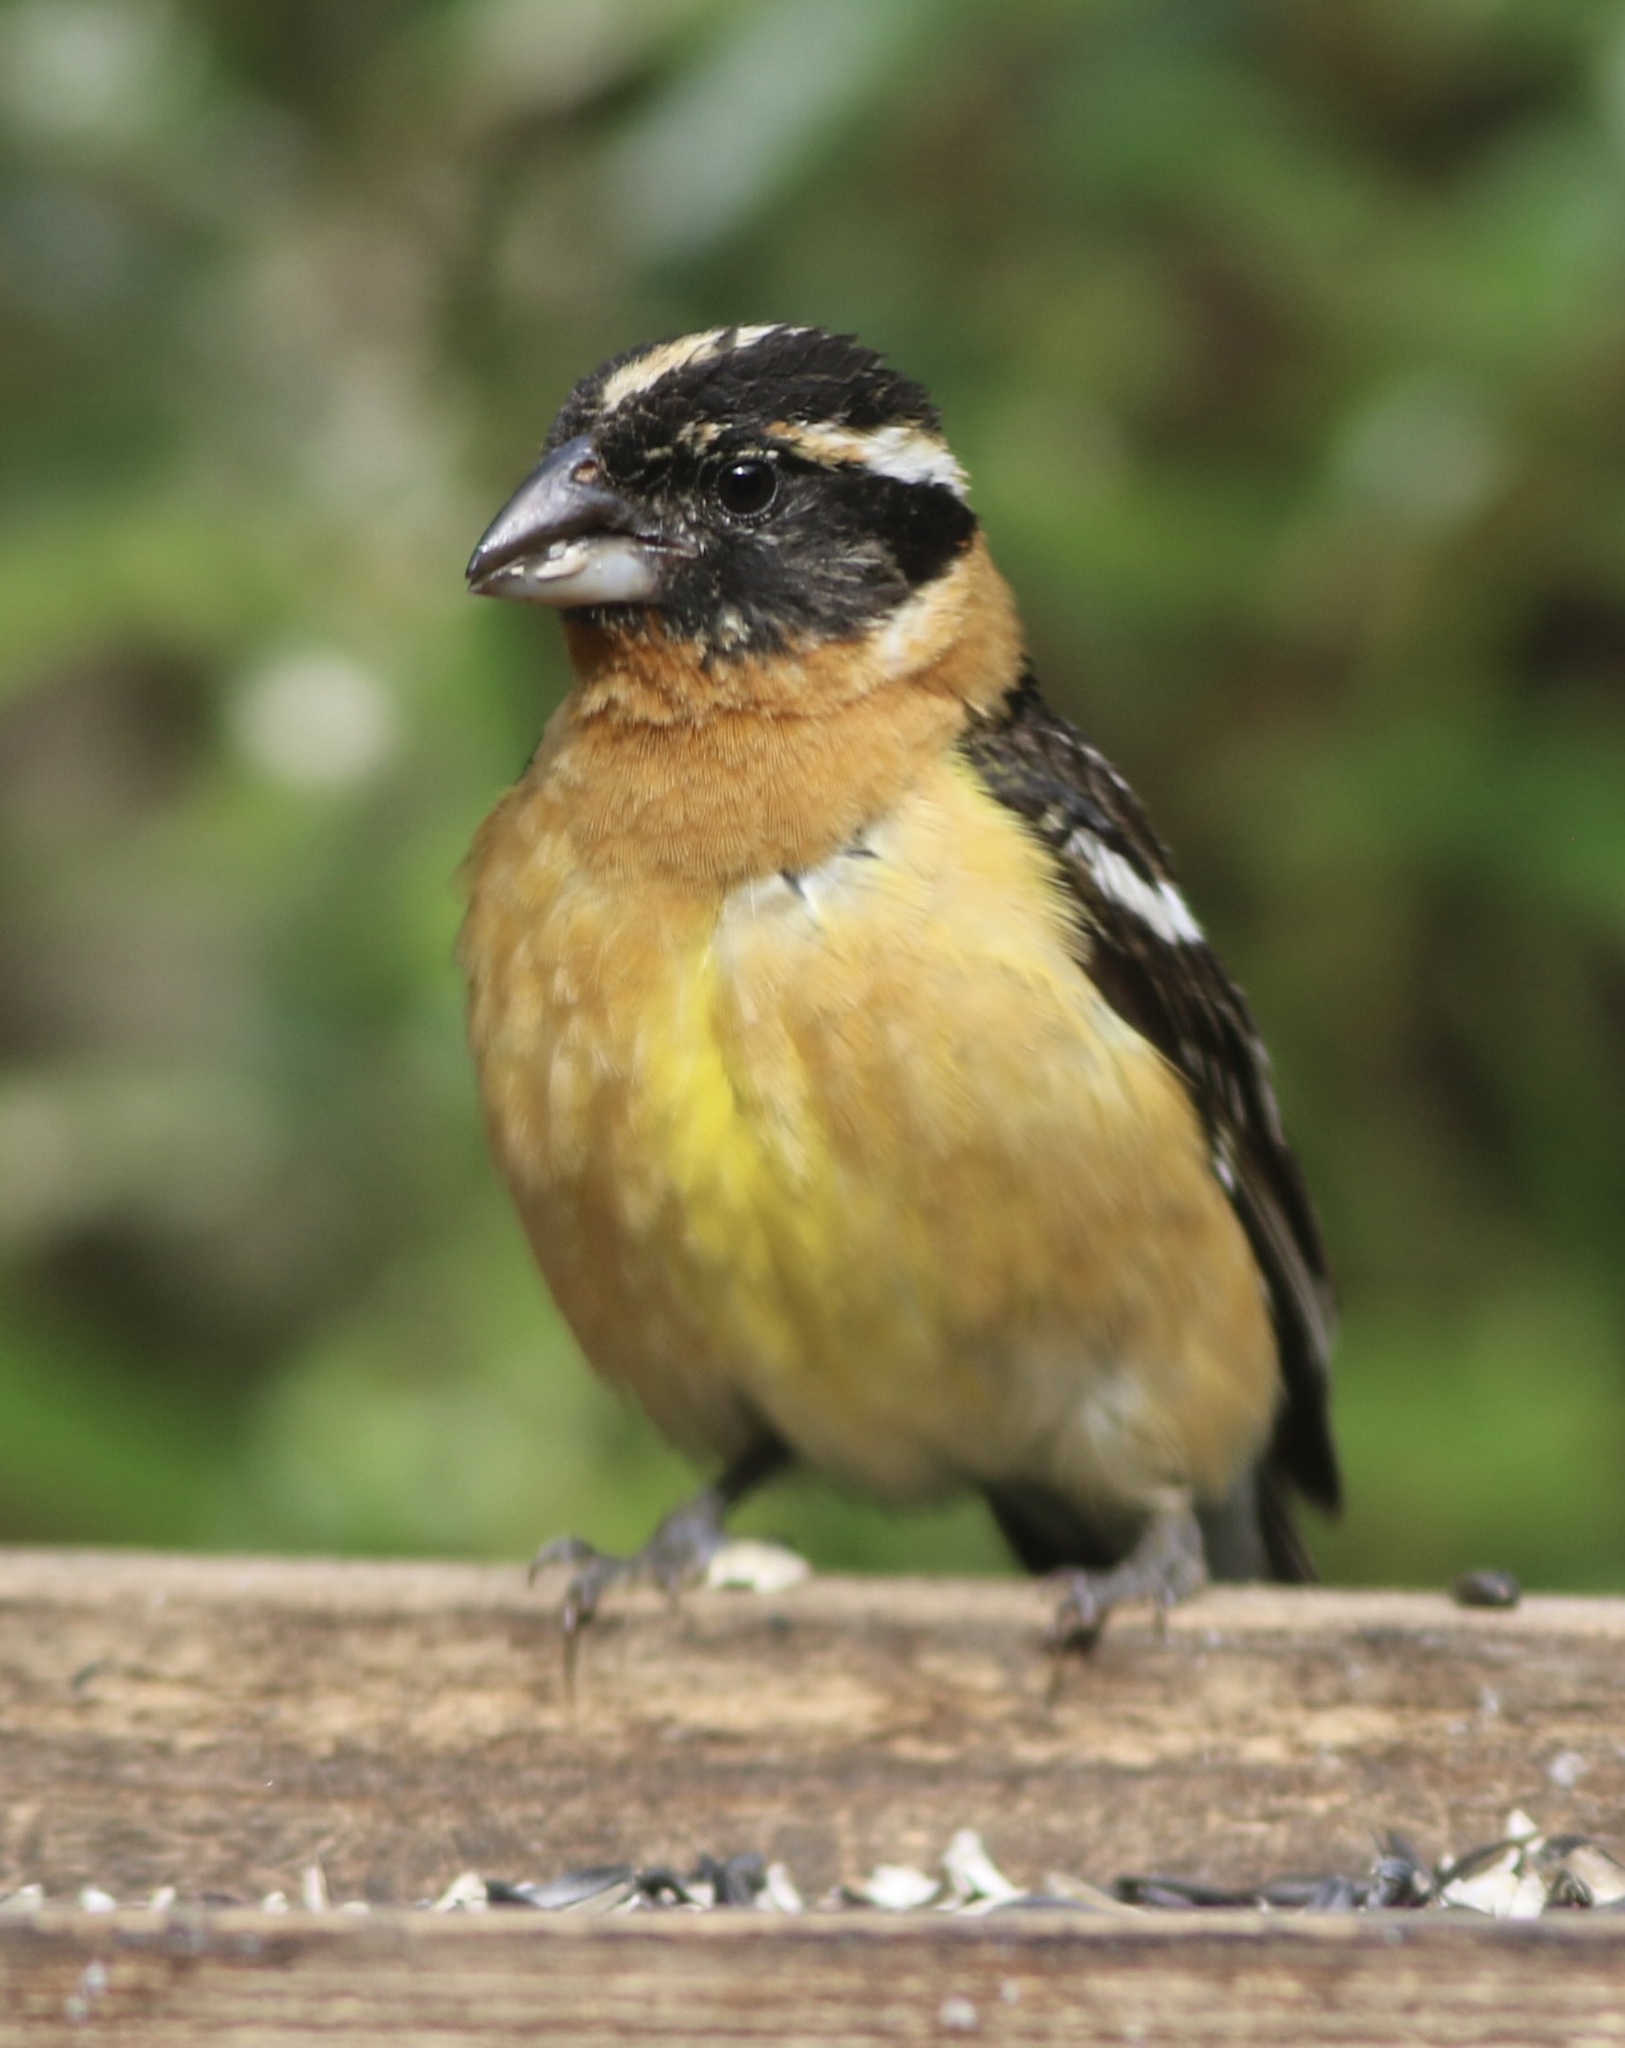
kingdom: Animalia
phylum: Chordata
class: Aves
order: Passeriformes
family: Cardinalidae
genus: Pheucticus
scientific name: Pheucticus melanocephalus
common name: Black-headed grosbeak
